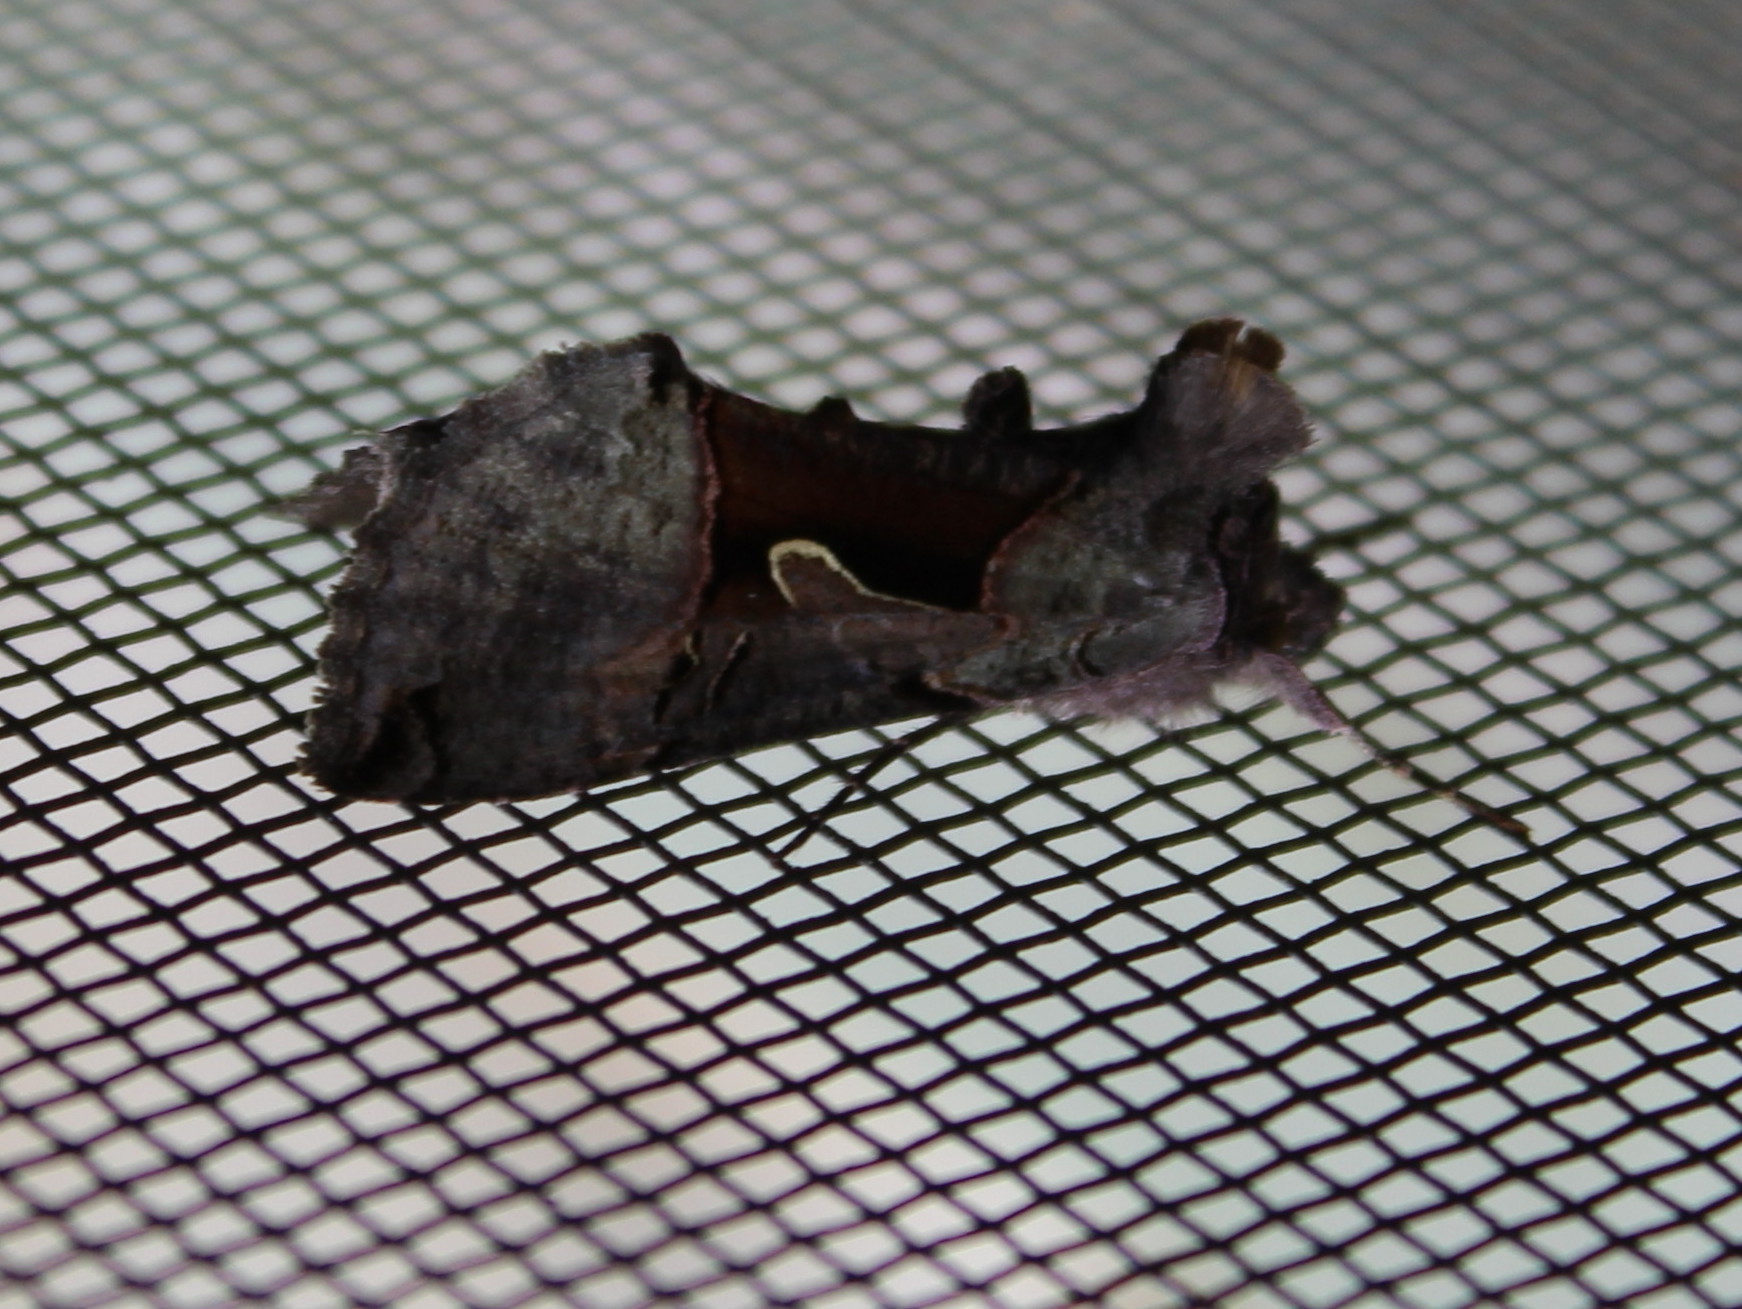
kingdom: Animalia
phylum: Arthropoda
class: Insecta
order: Lepidoptera
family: Noctuidae
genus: Autographa
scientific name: Autographa ampla
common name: Large looper moth
